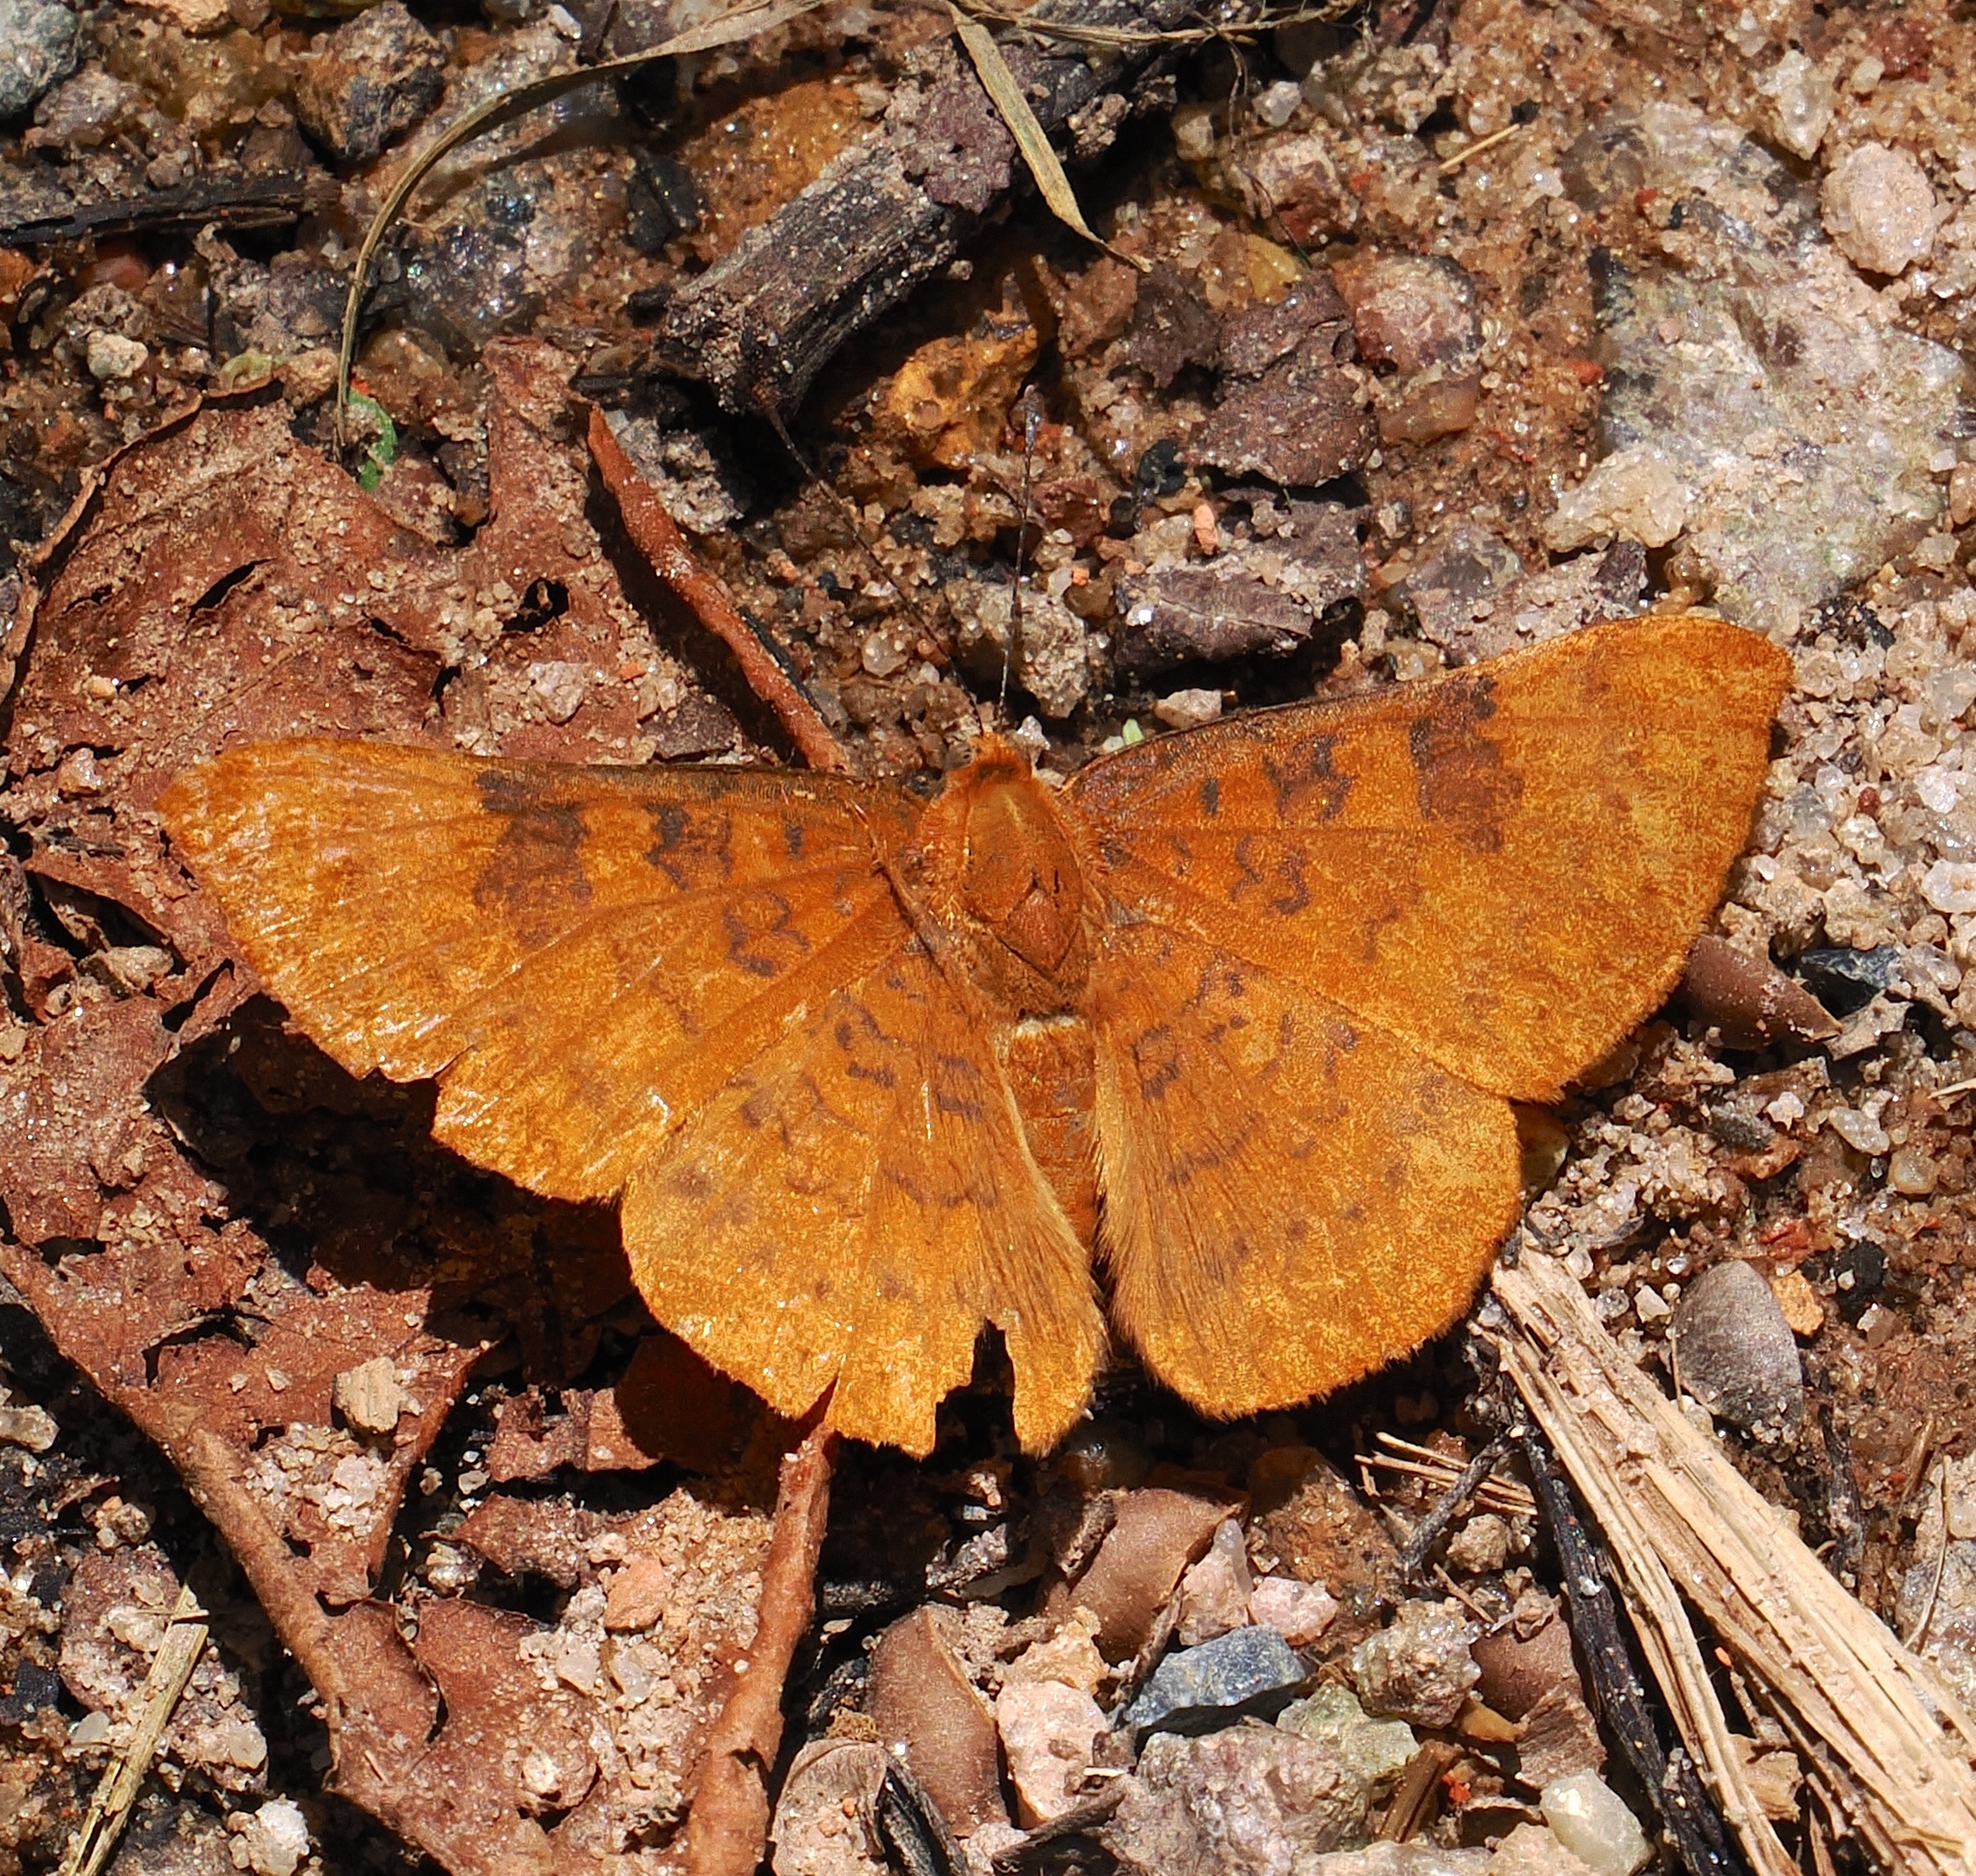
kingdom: Animalia
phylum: Arthropoda
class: Insecta
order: Lepidoptera
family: Lycaenidae
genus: Emesis
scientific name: Emesis mandana
